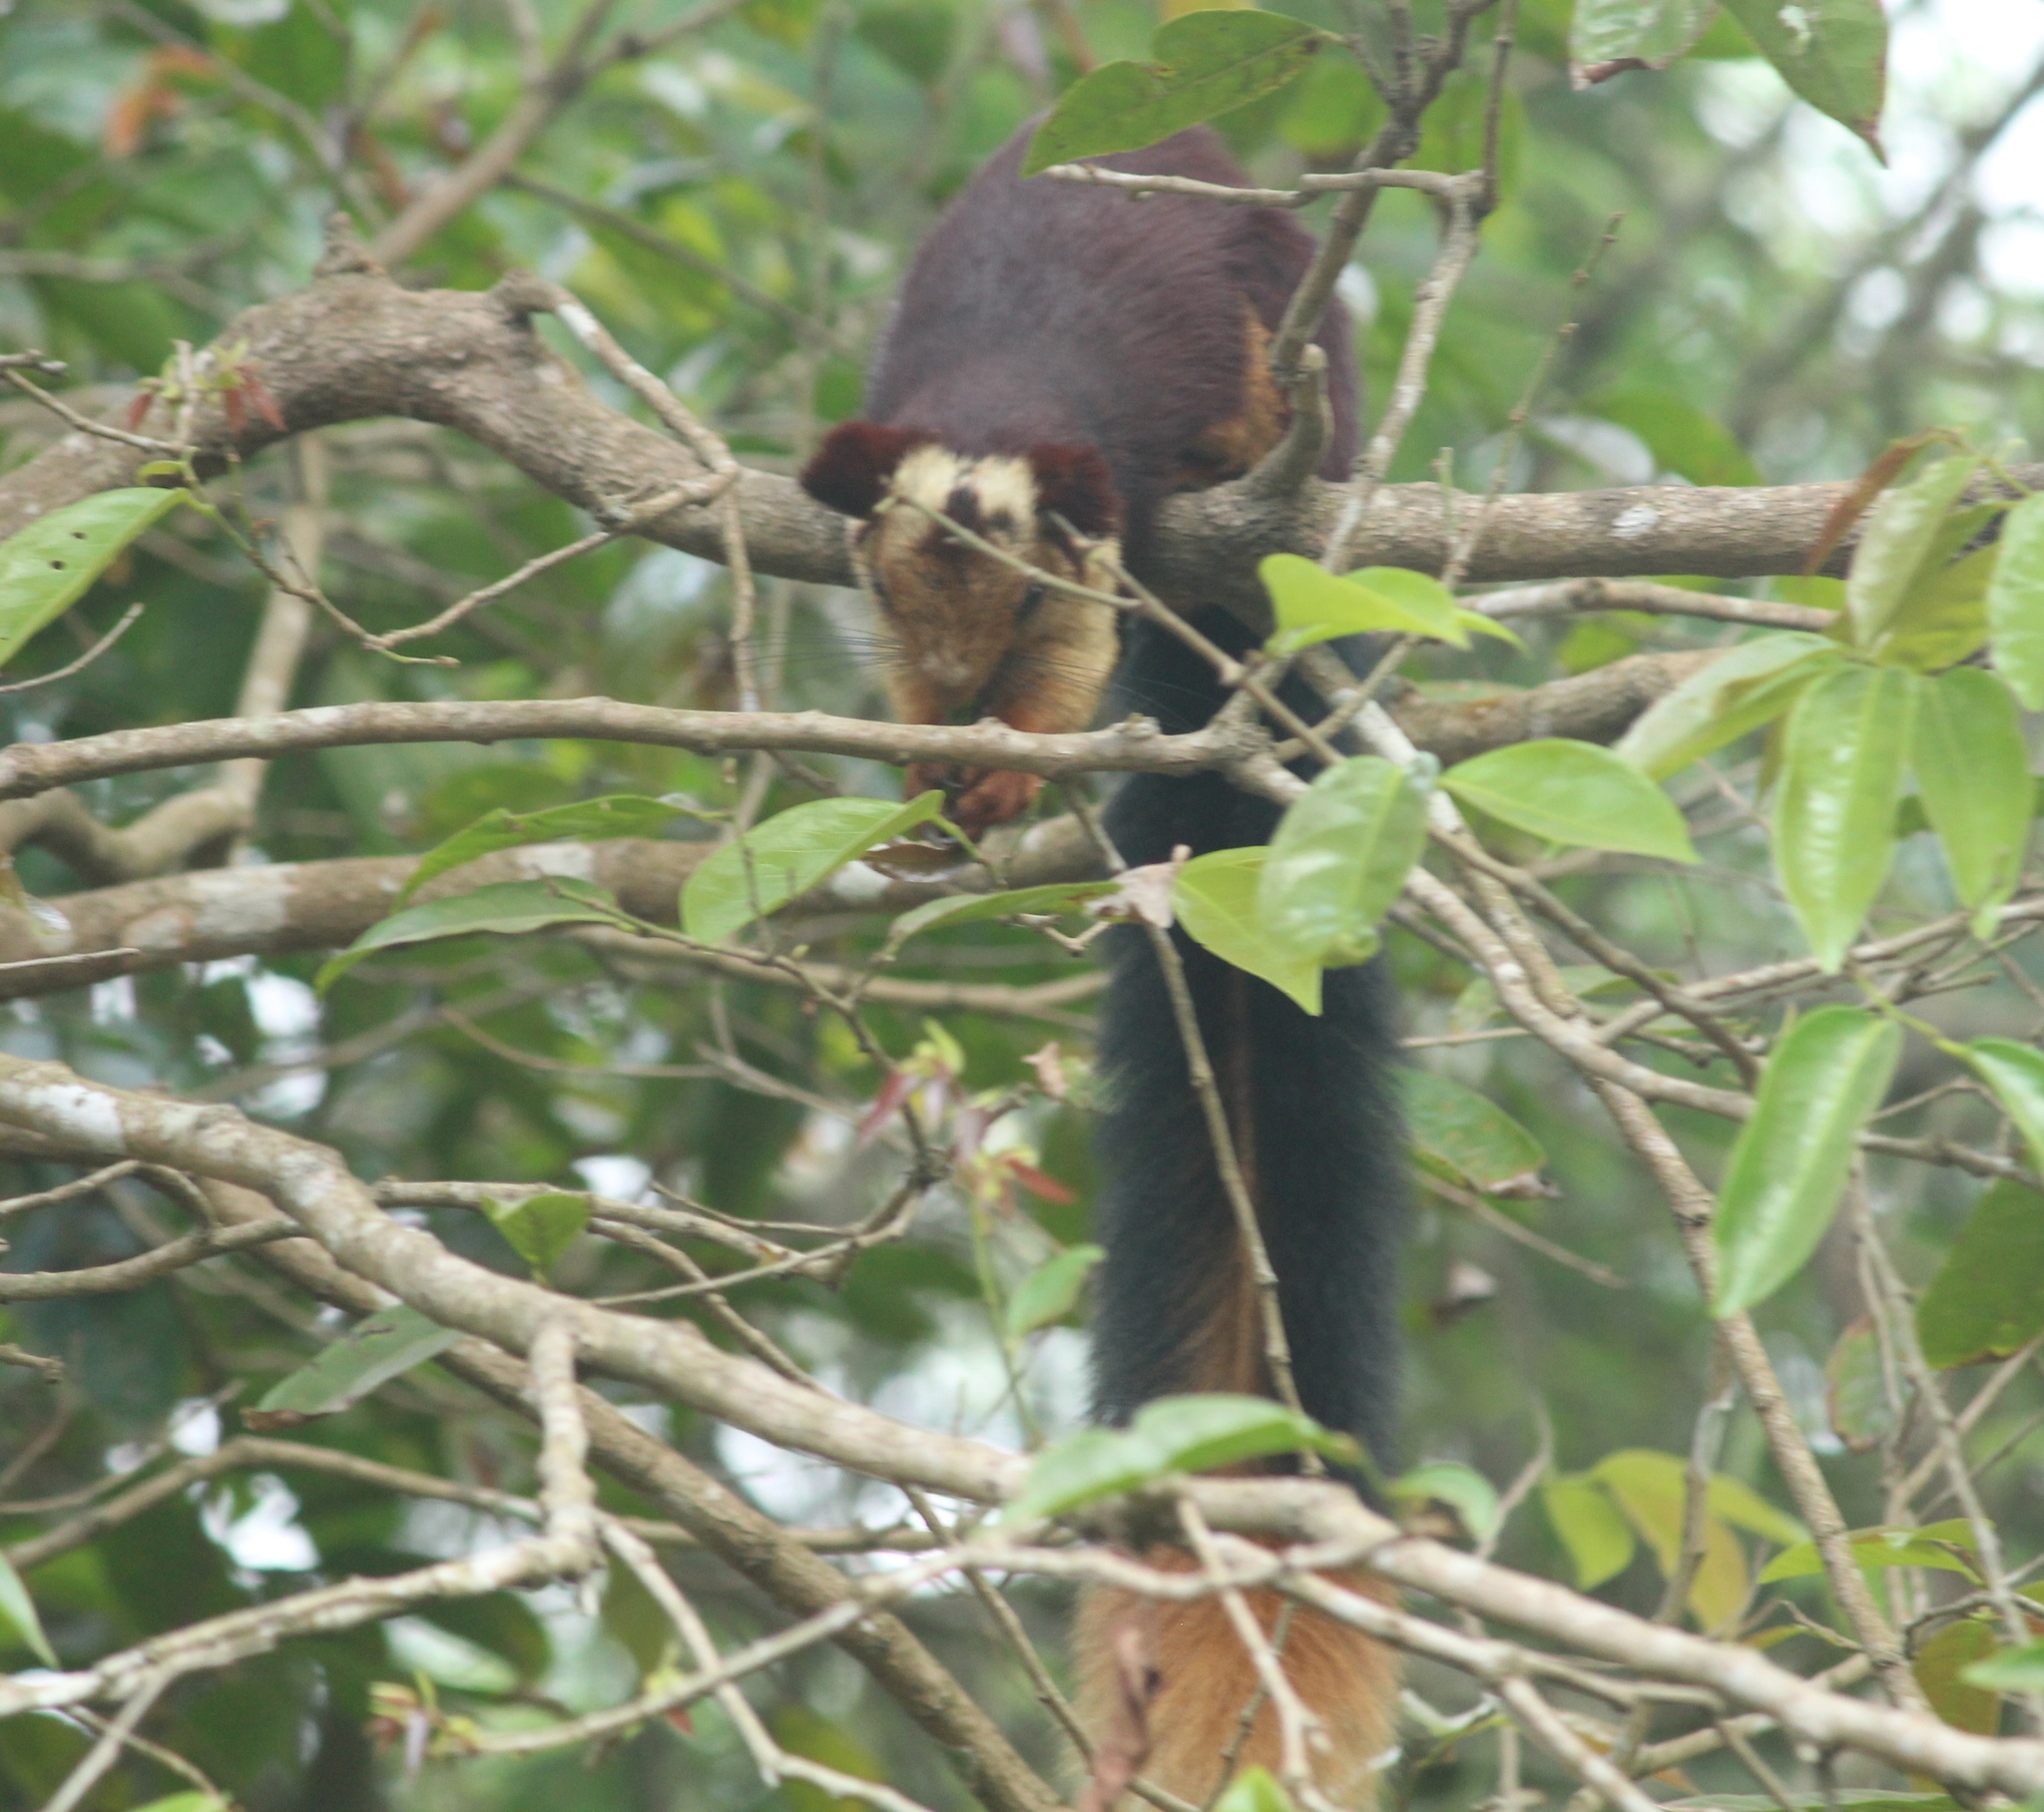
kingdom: Animalia
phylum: Chordata
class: Mammalia
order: Rodentia
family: Sciuridae
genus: Ratufa
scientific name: Ratufa indica
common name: Indian giant squirrel
